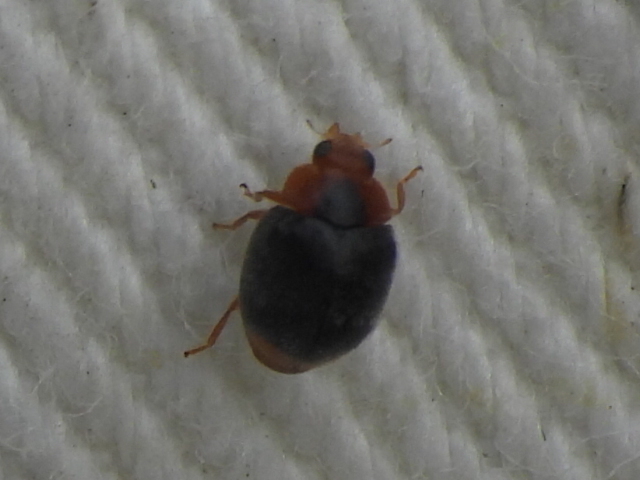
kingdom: Animalia
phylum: Arthropoda
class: Insecta
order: Coleoptera
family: Coccinellidae
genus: Scymnus
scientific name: Scymnus louisianae
